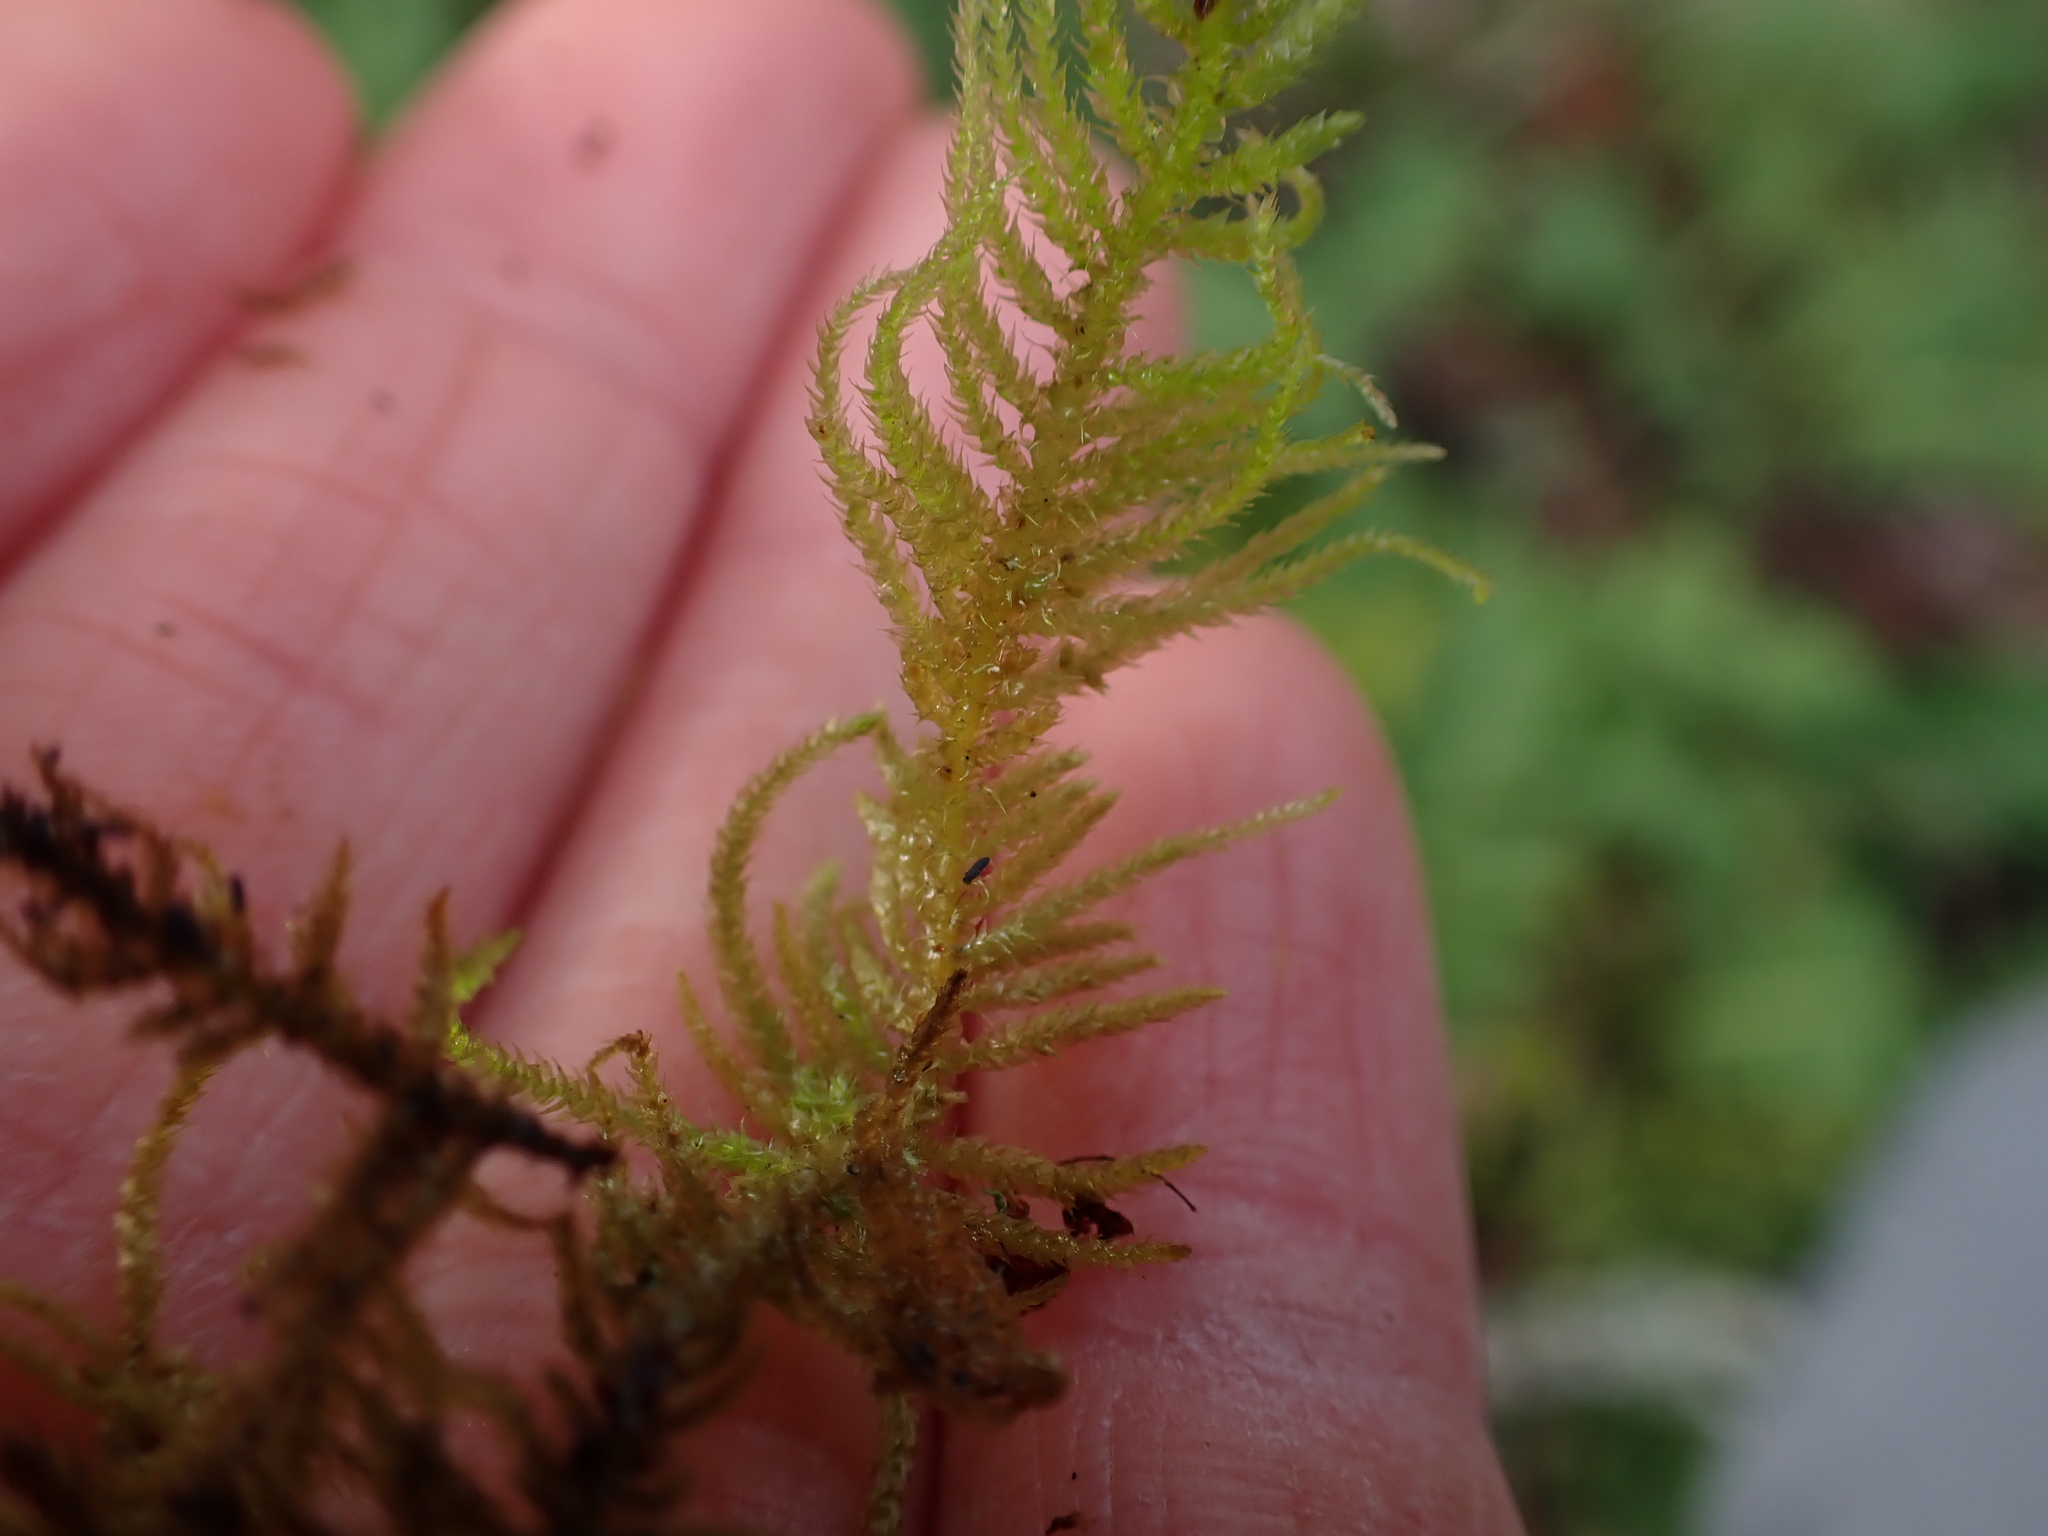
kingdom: Plantae
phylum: Bryophyta
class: Bryopsida
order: Hypnales
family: Brachytheciaceae
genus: Kindbergia
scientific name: Kindbergia oregana
